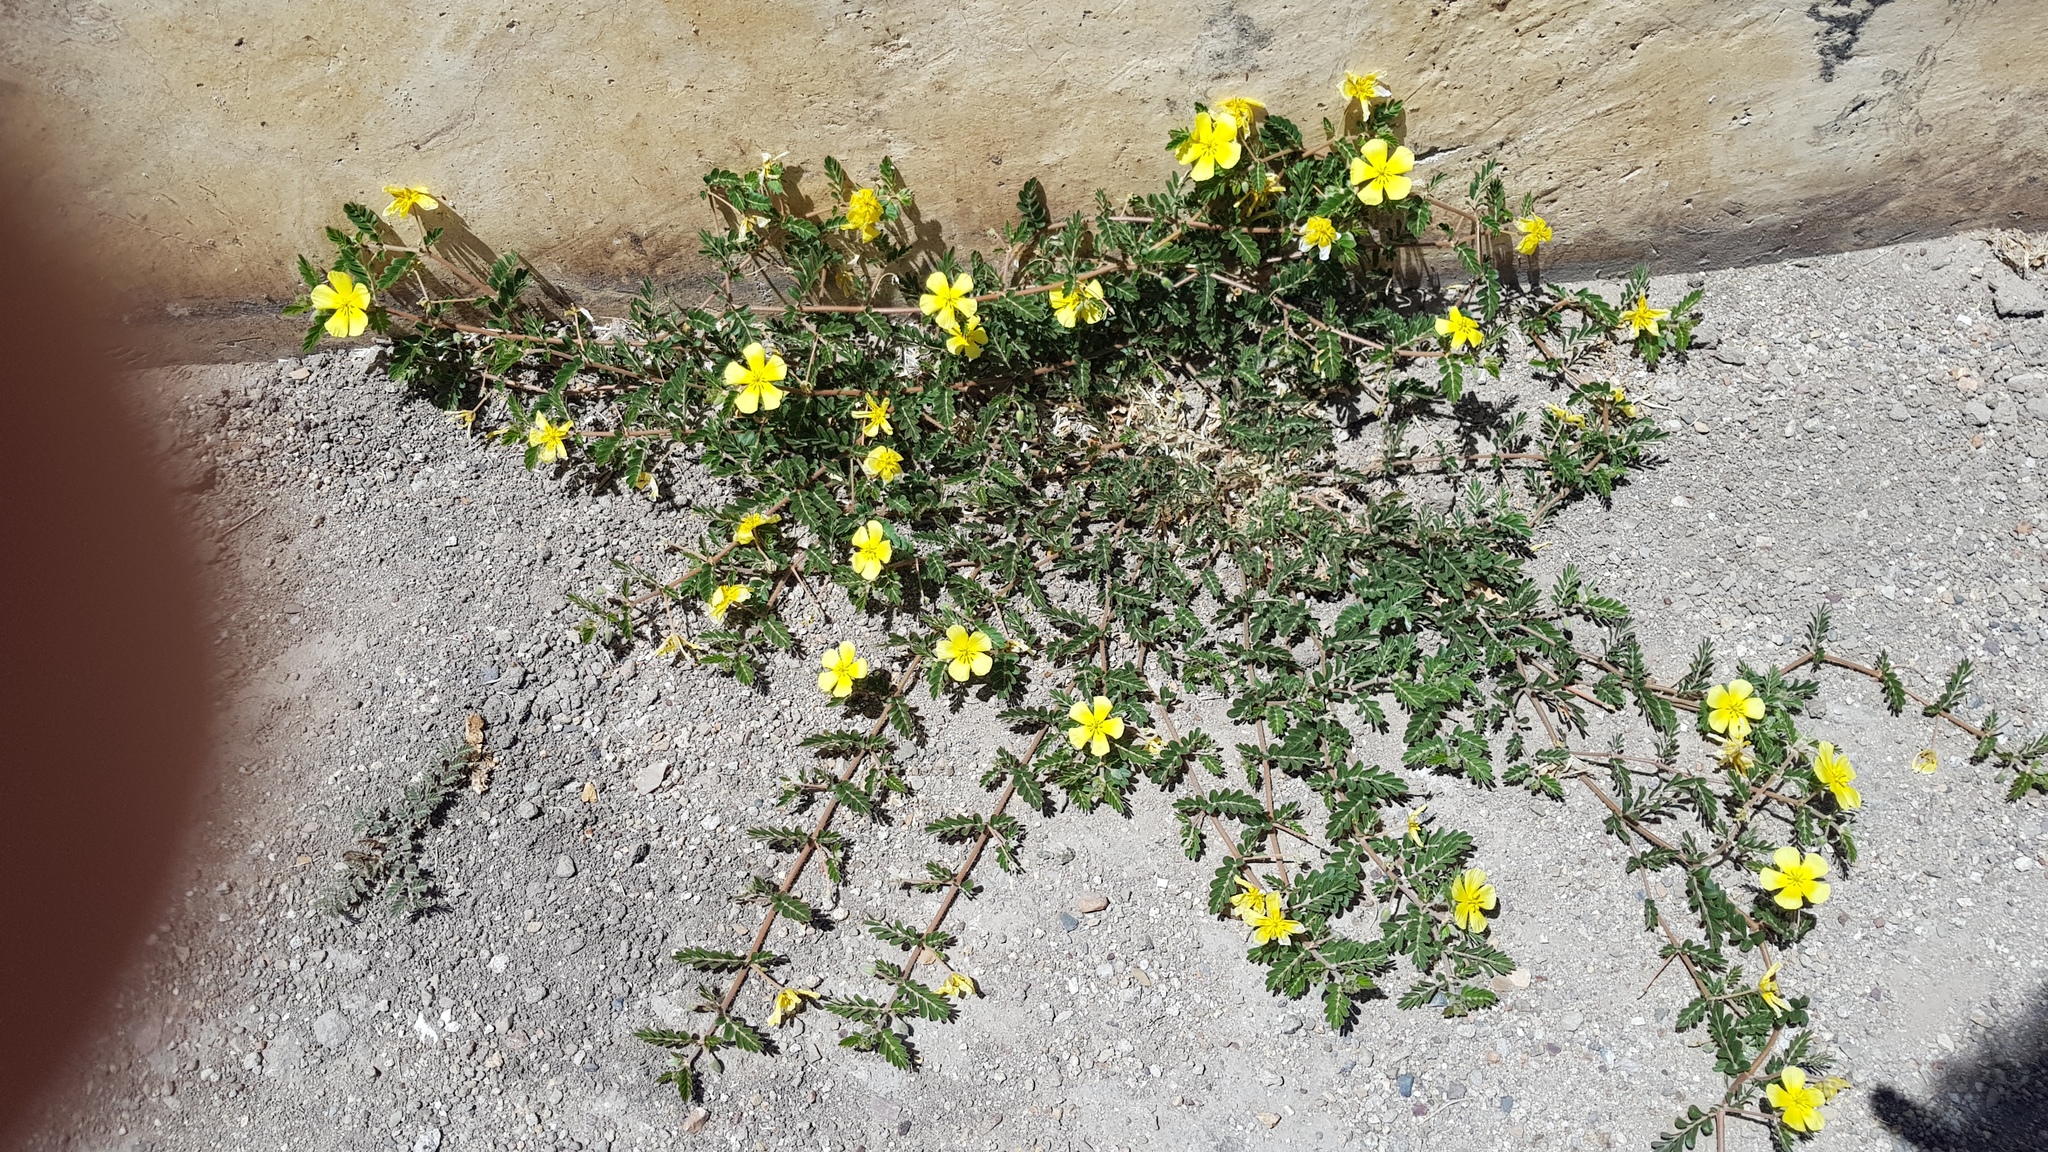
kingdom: Plantae
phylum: Tracheophyta
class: Magnoliopsida
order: Zygophyllales
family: Zygophyllaceae
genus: Tribulus
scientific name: Tribulus cistoides
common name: Jamaican feverplant
